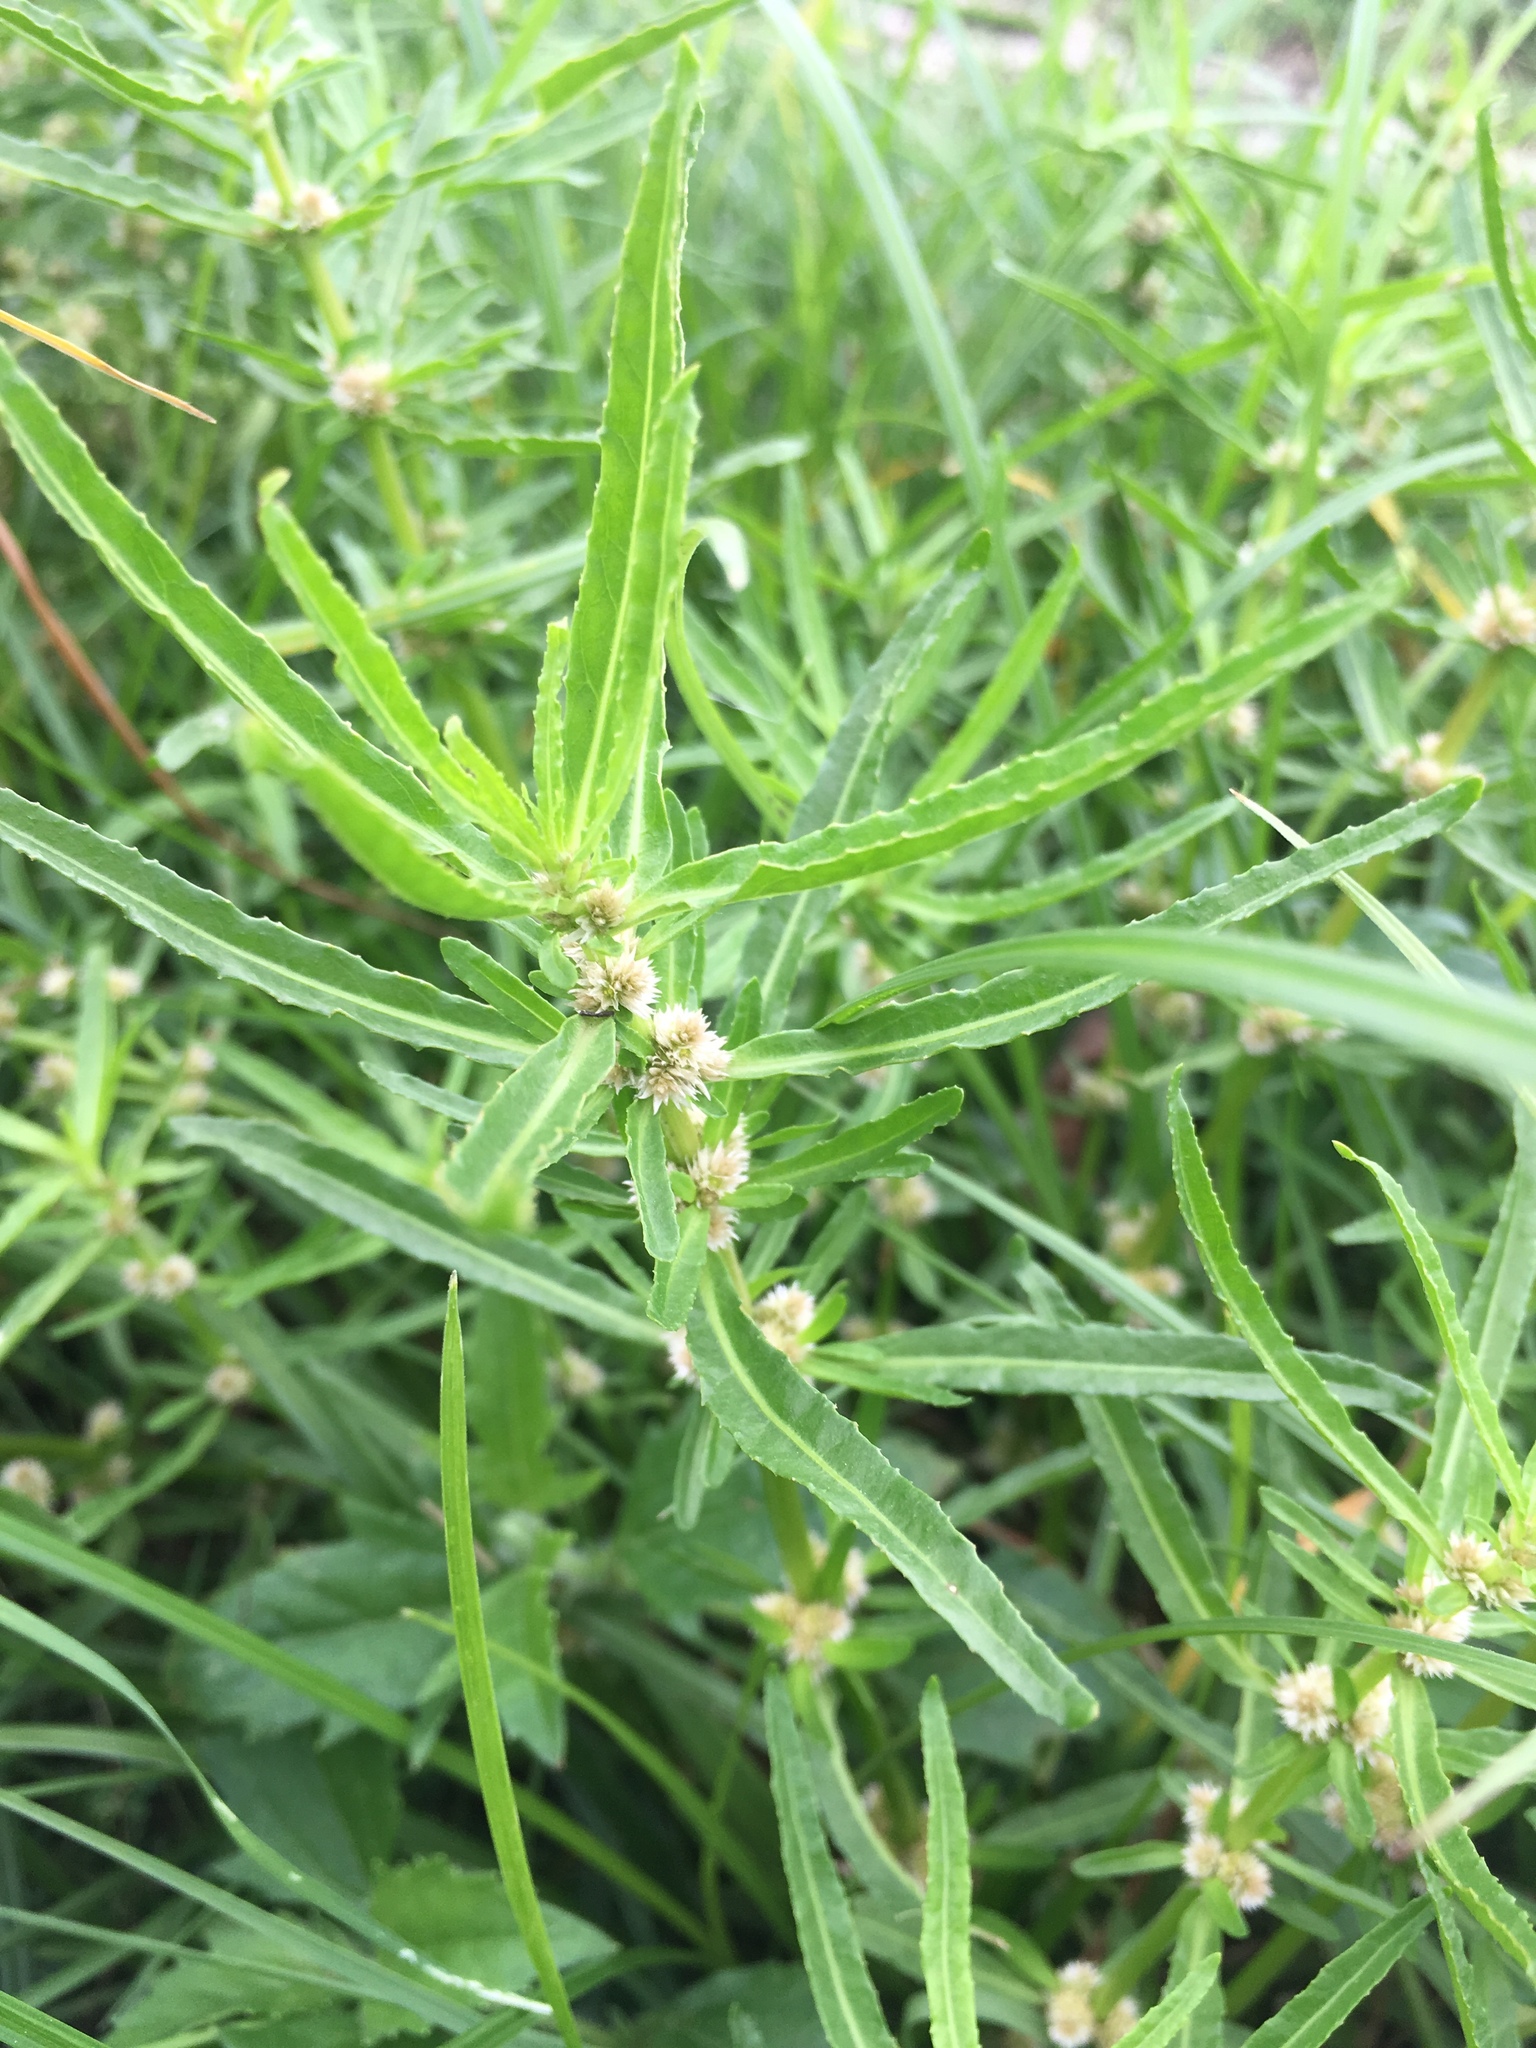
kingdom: Plantae
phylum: Tracheophyta
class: Magnoliopsida
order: Caryophyllales
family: Amaranthaceae
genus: Alternanthera
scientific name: Alternanthera sessilis
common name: Sessile joyweed
